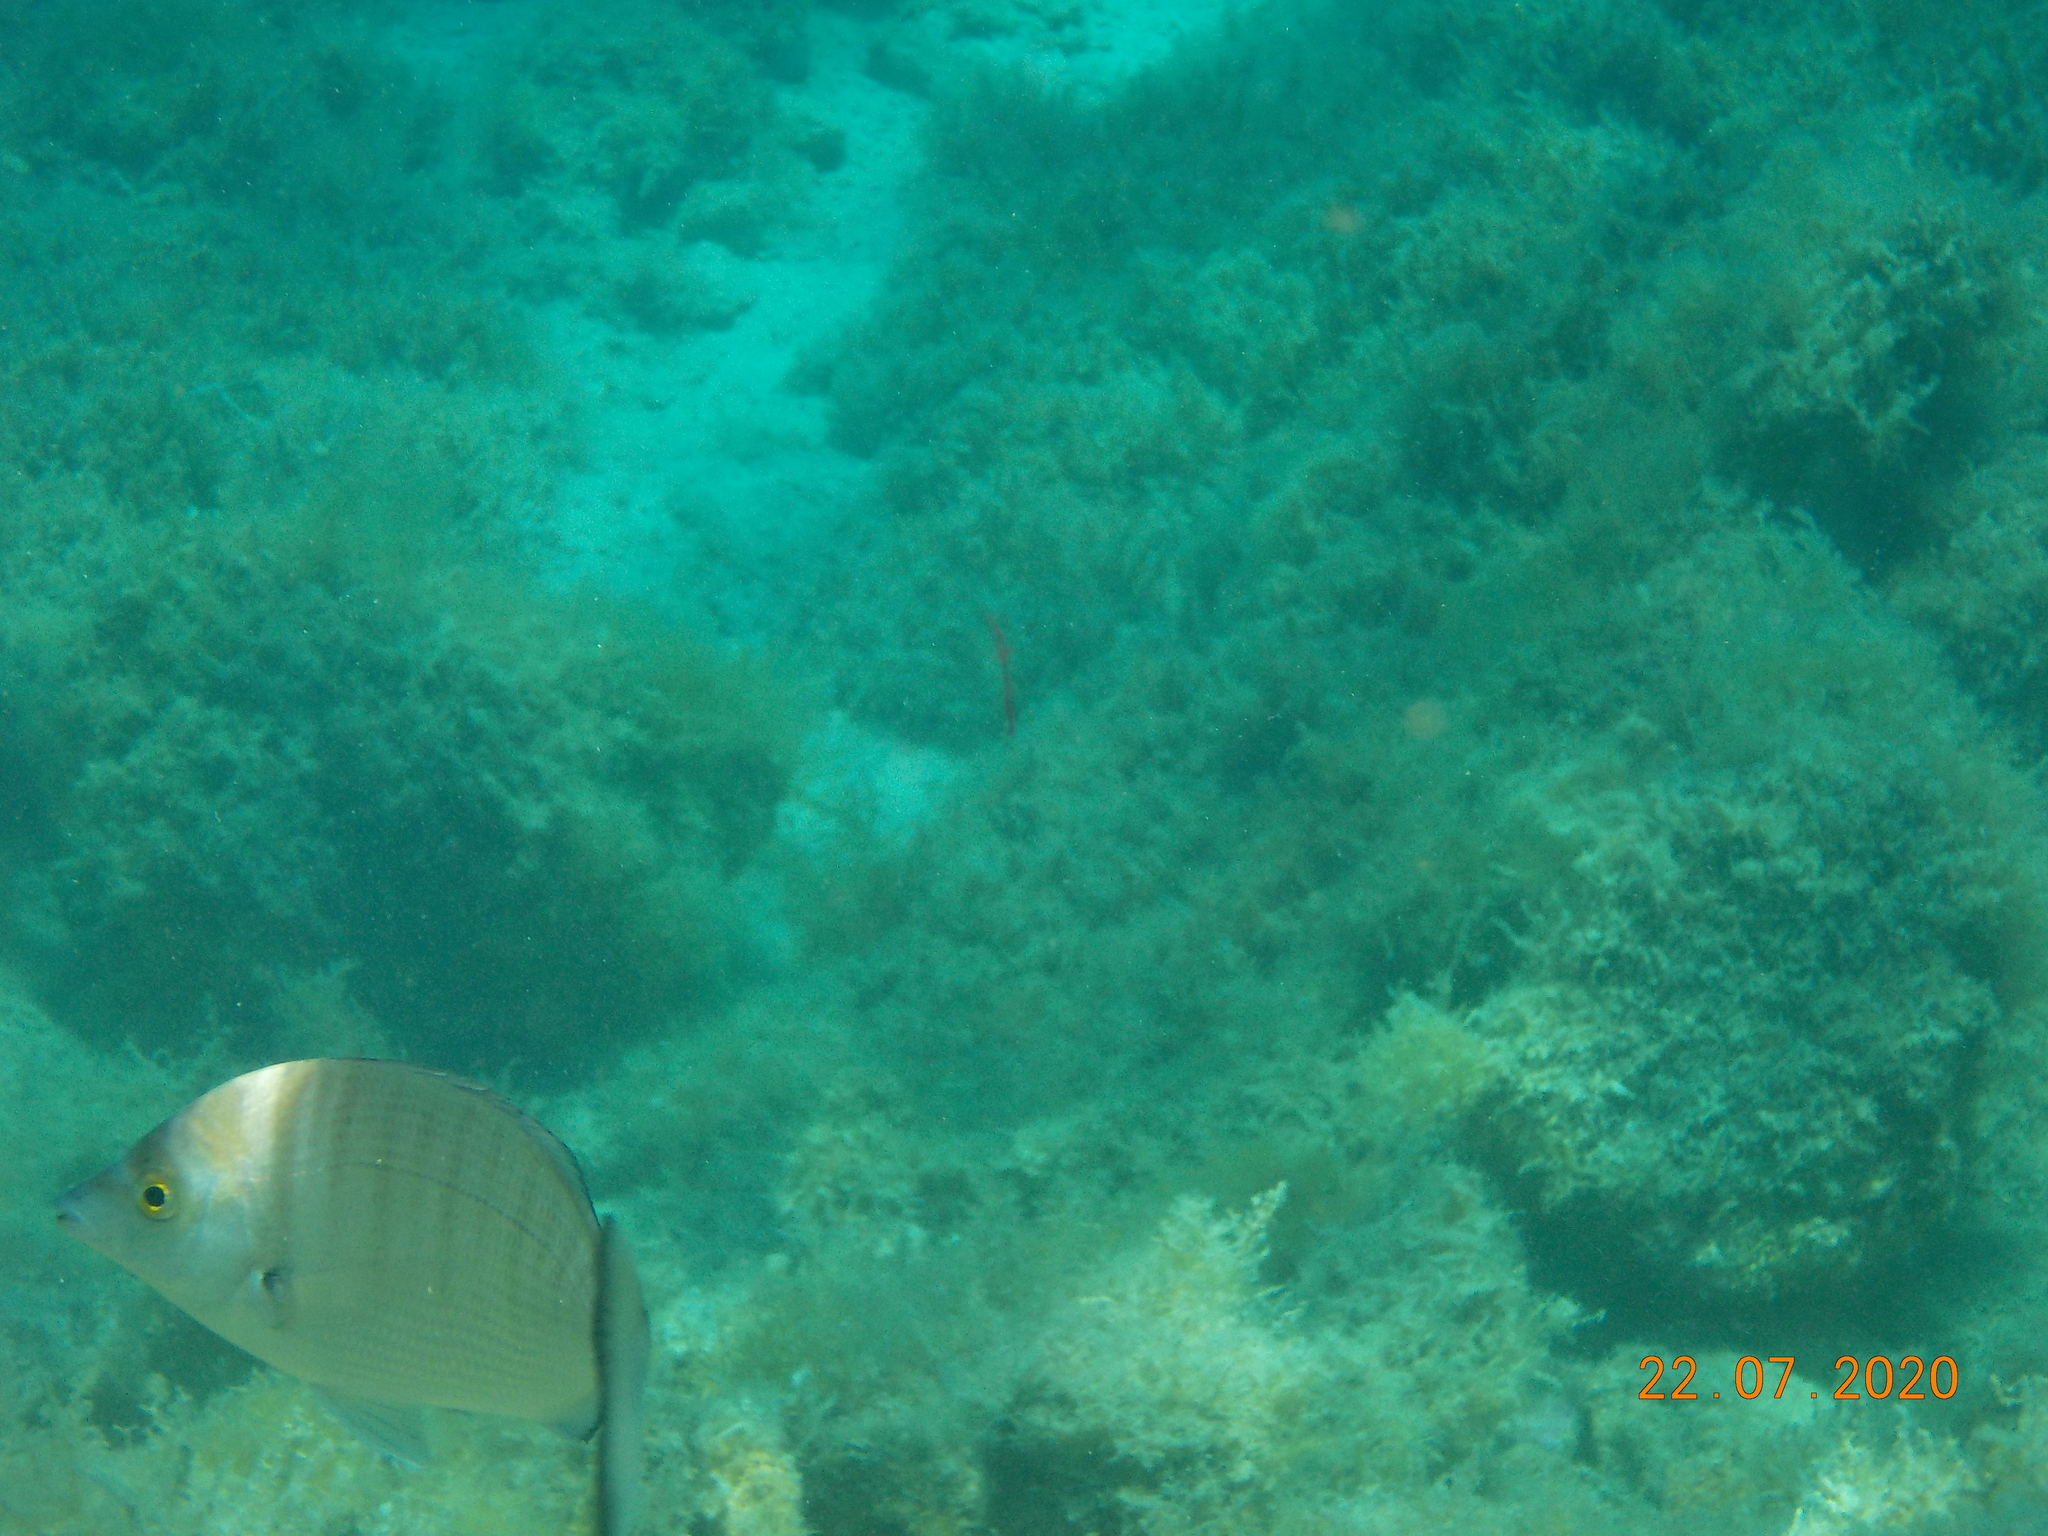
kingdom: Animalia
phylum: Chordata
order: Perciformes
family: Sparidae
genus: Diplodus
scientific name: Diplodus puntazzo
